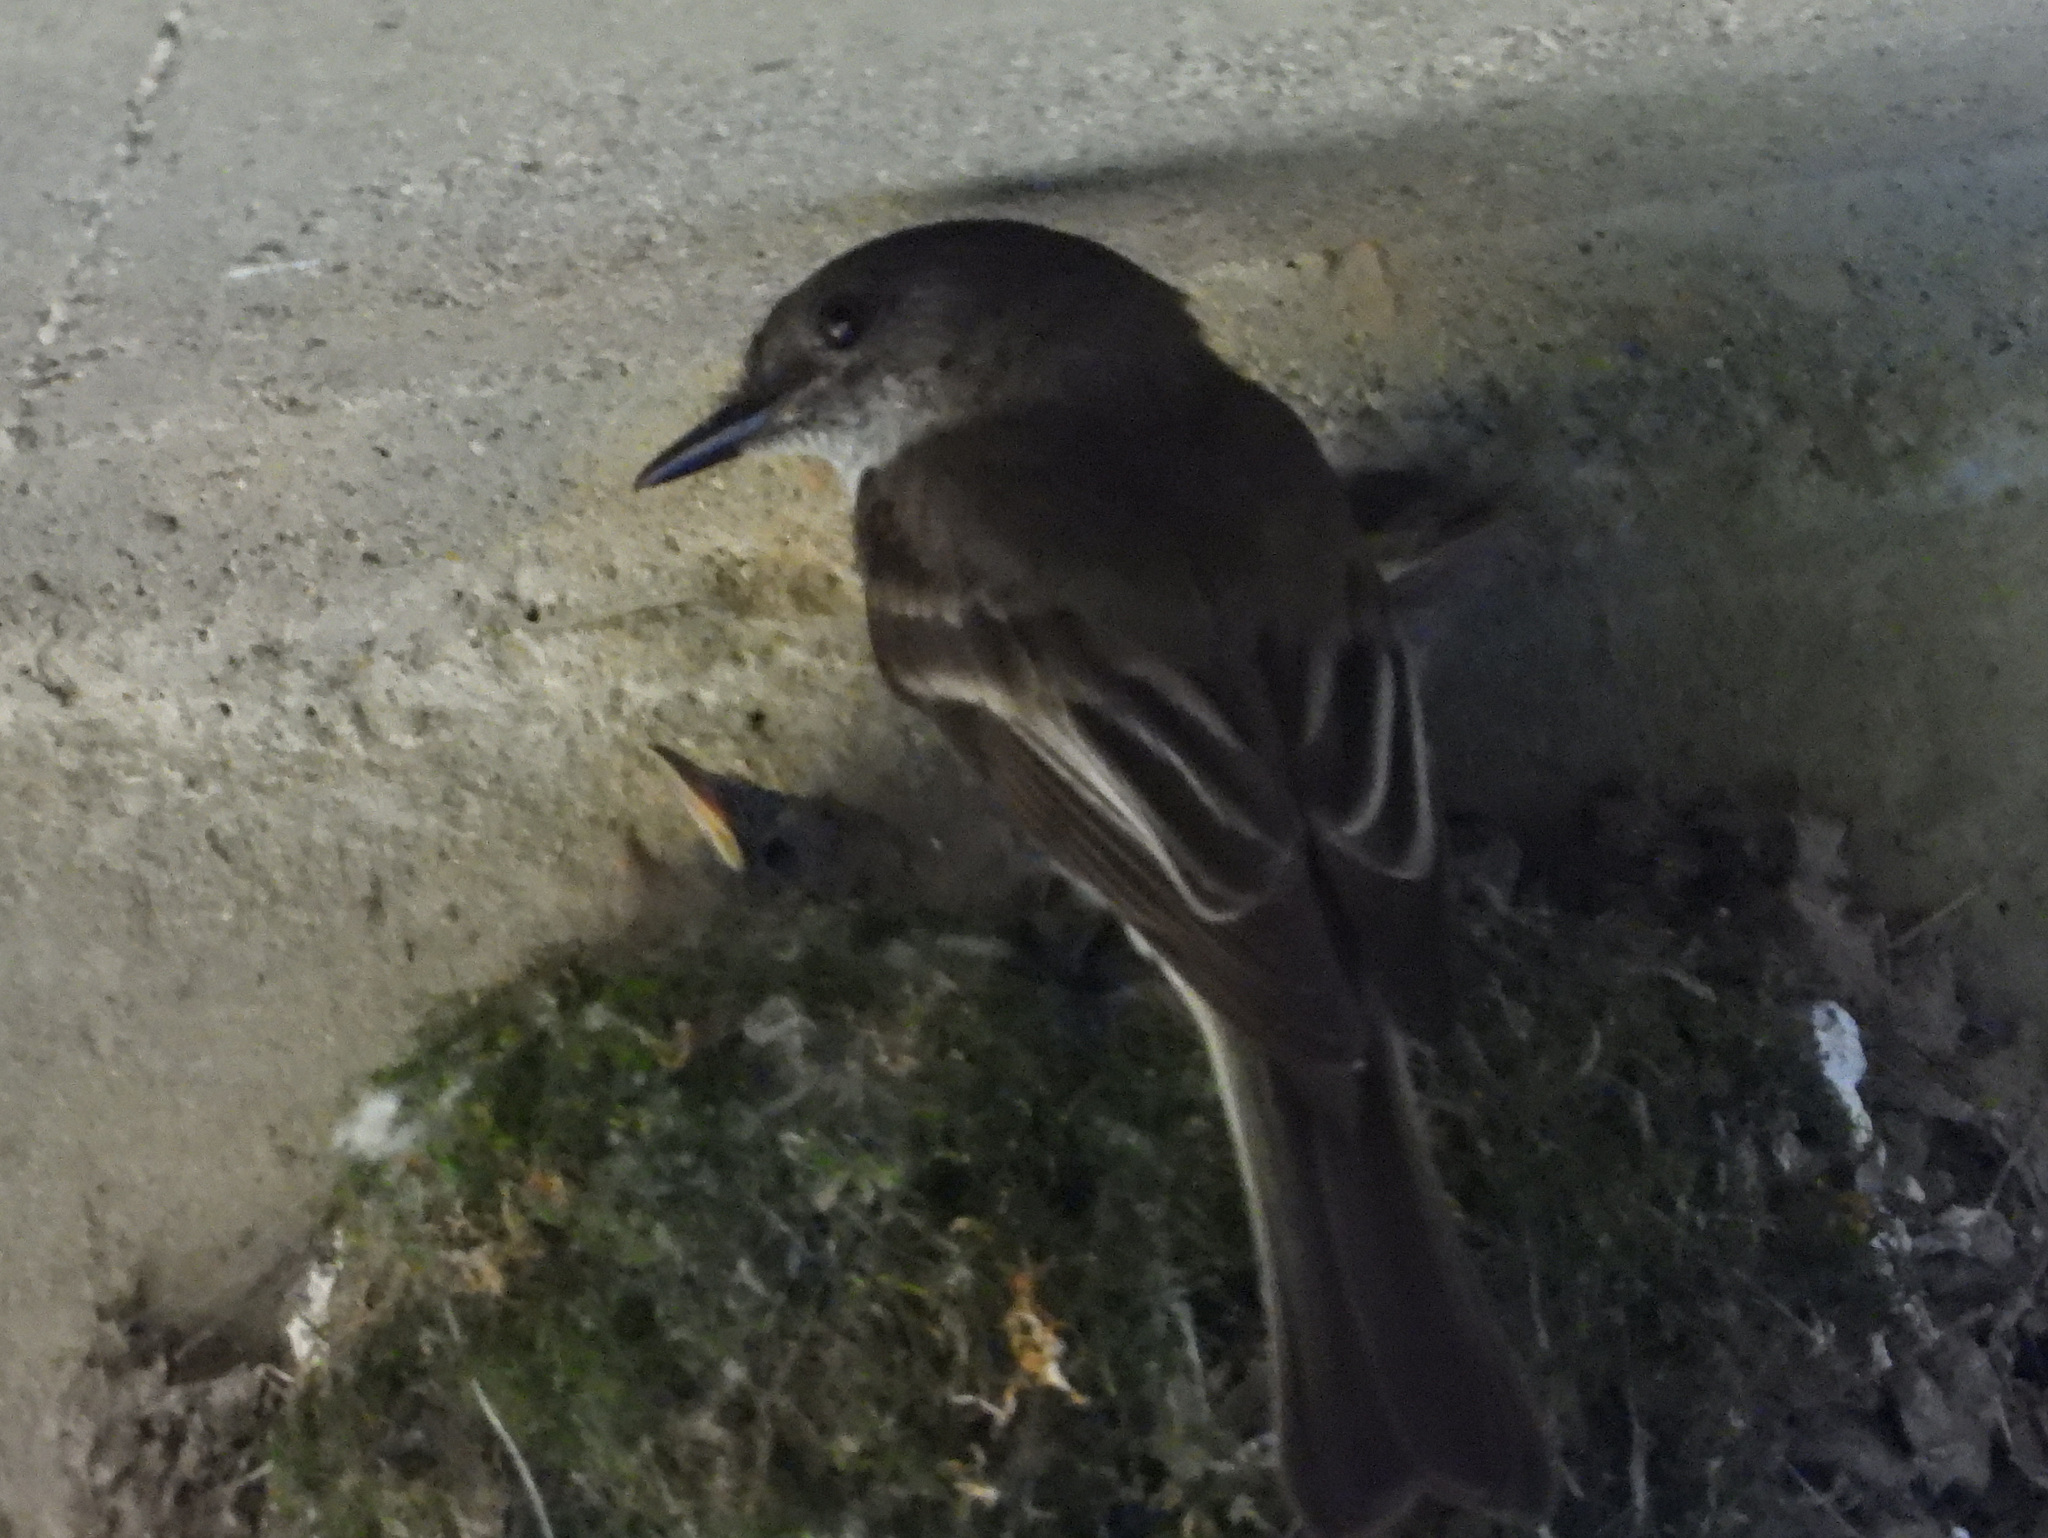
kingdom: Animalia
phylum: Chordata
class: Aves
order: Passeriformes
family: Tyrannidae
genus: Sayornis
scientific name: Sayornis phoebe
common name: Eastern phoebe
